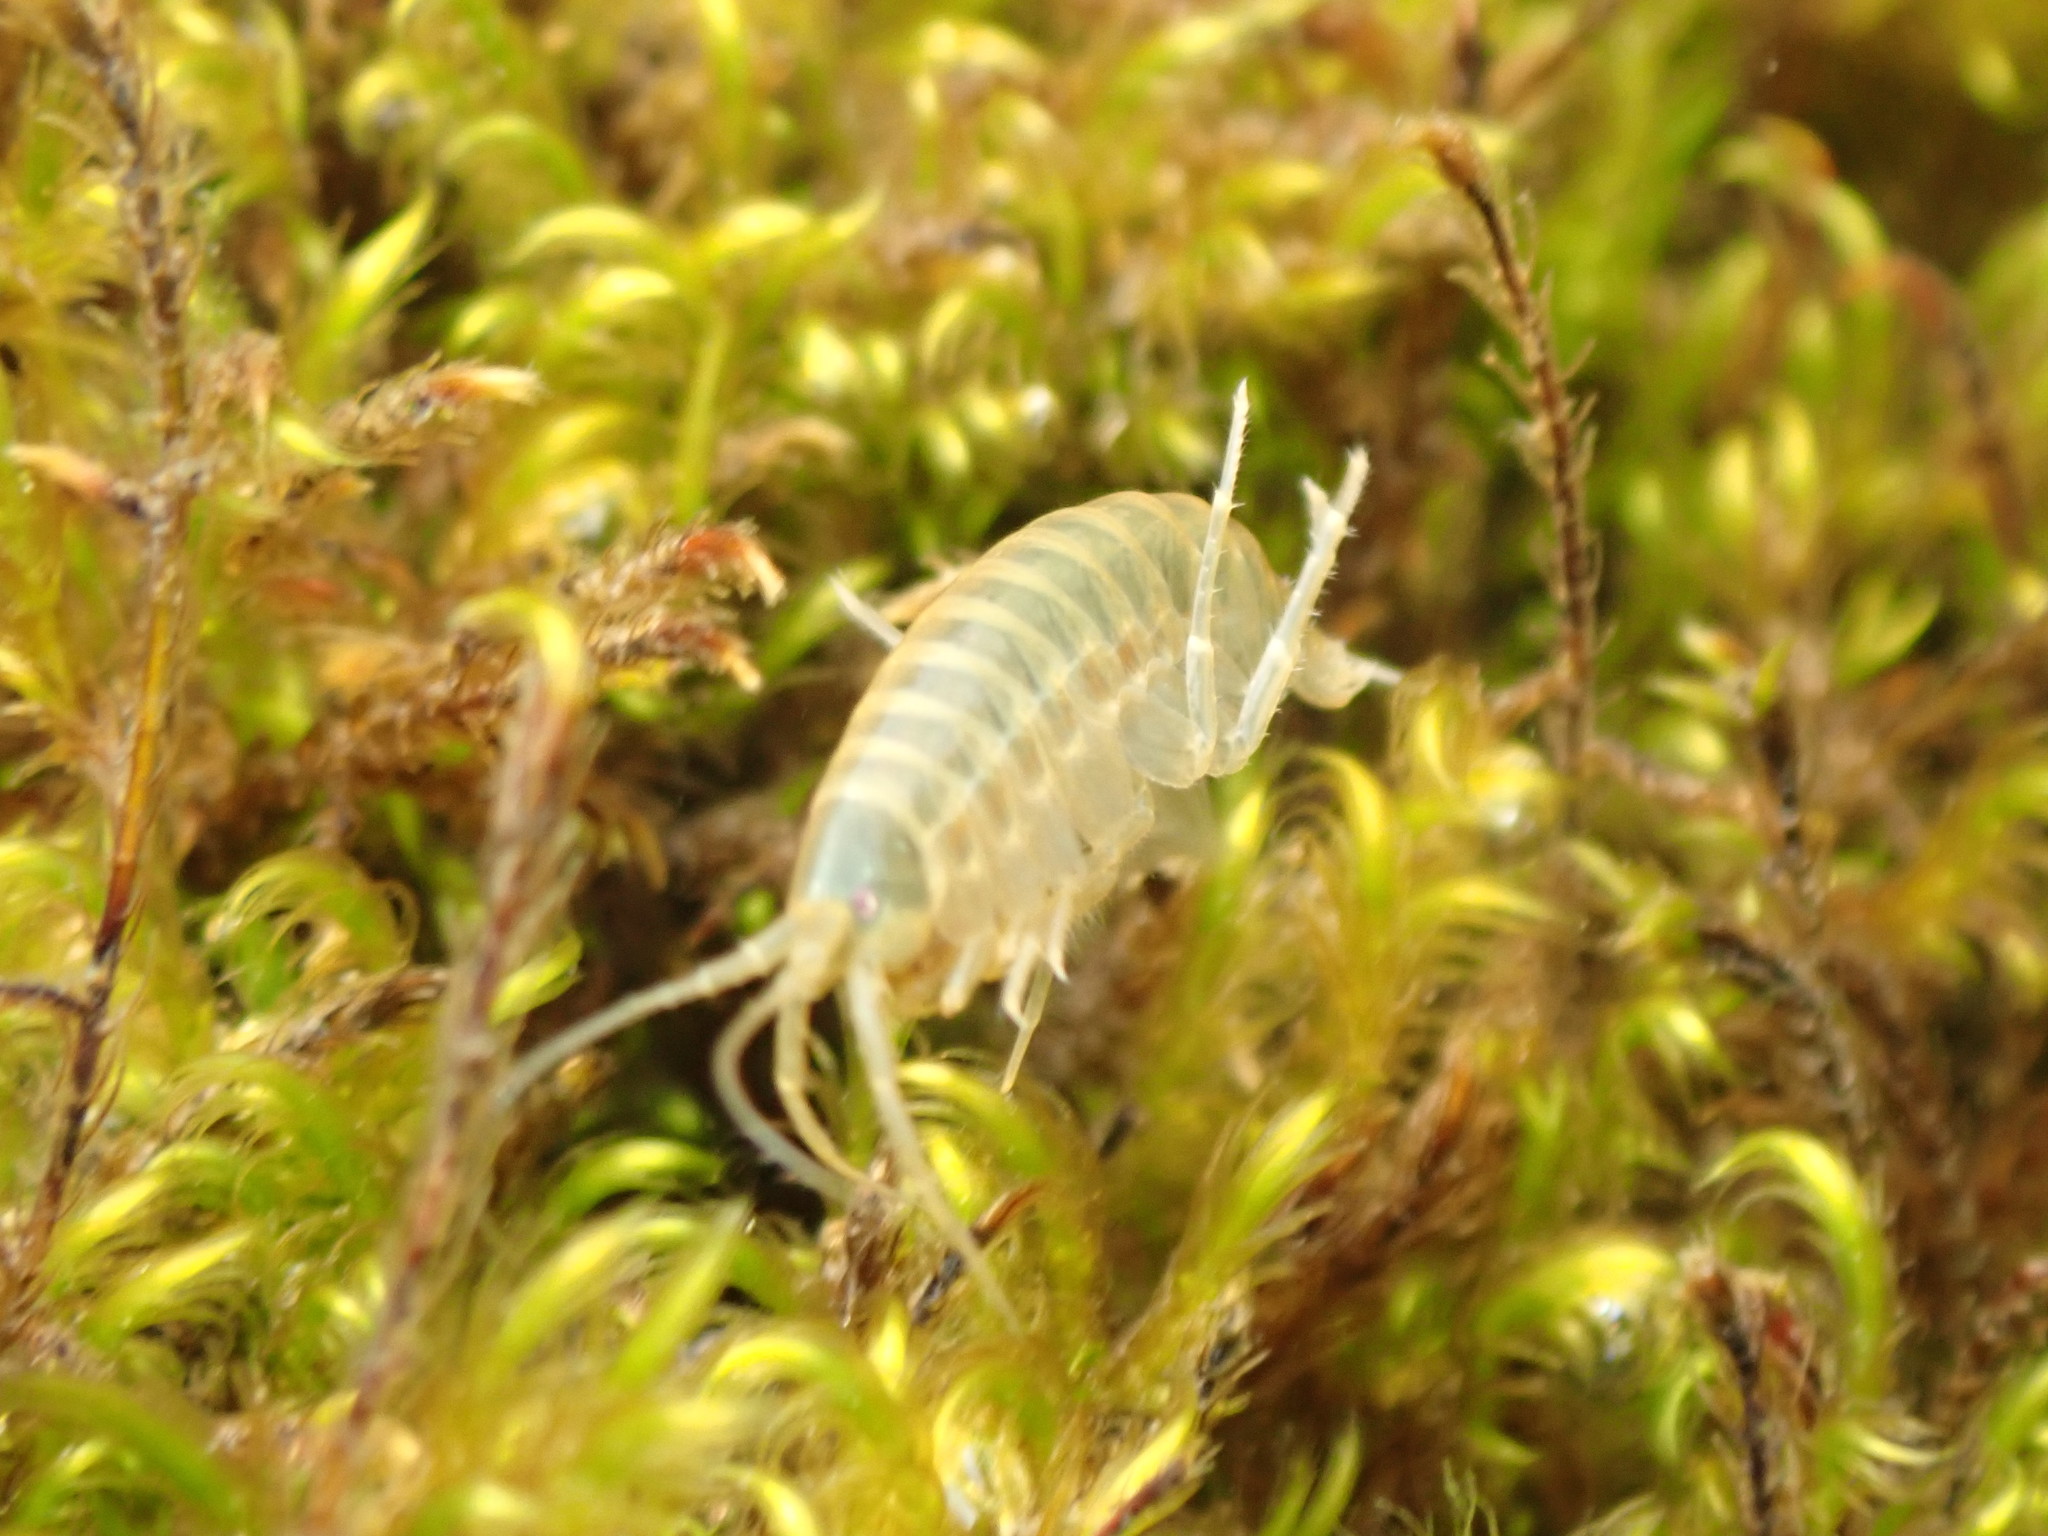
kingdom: Animalia
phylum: Arthropoda
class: Malacostraca
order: Amphipoda
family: Gammaridae
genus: Gammarus
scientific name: Gammarus lacustris
